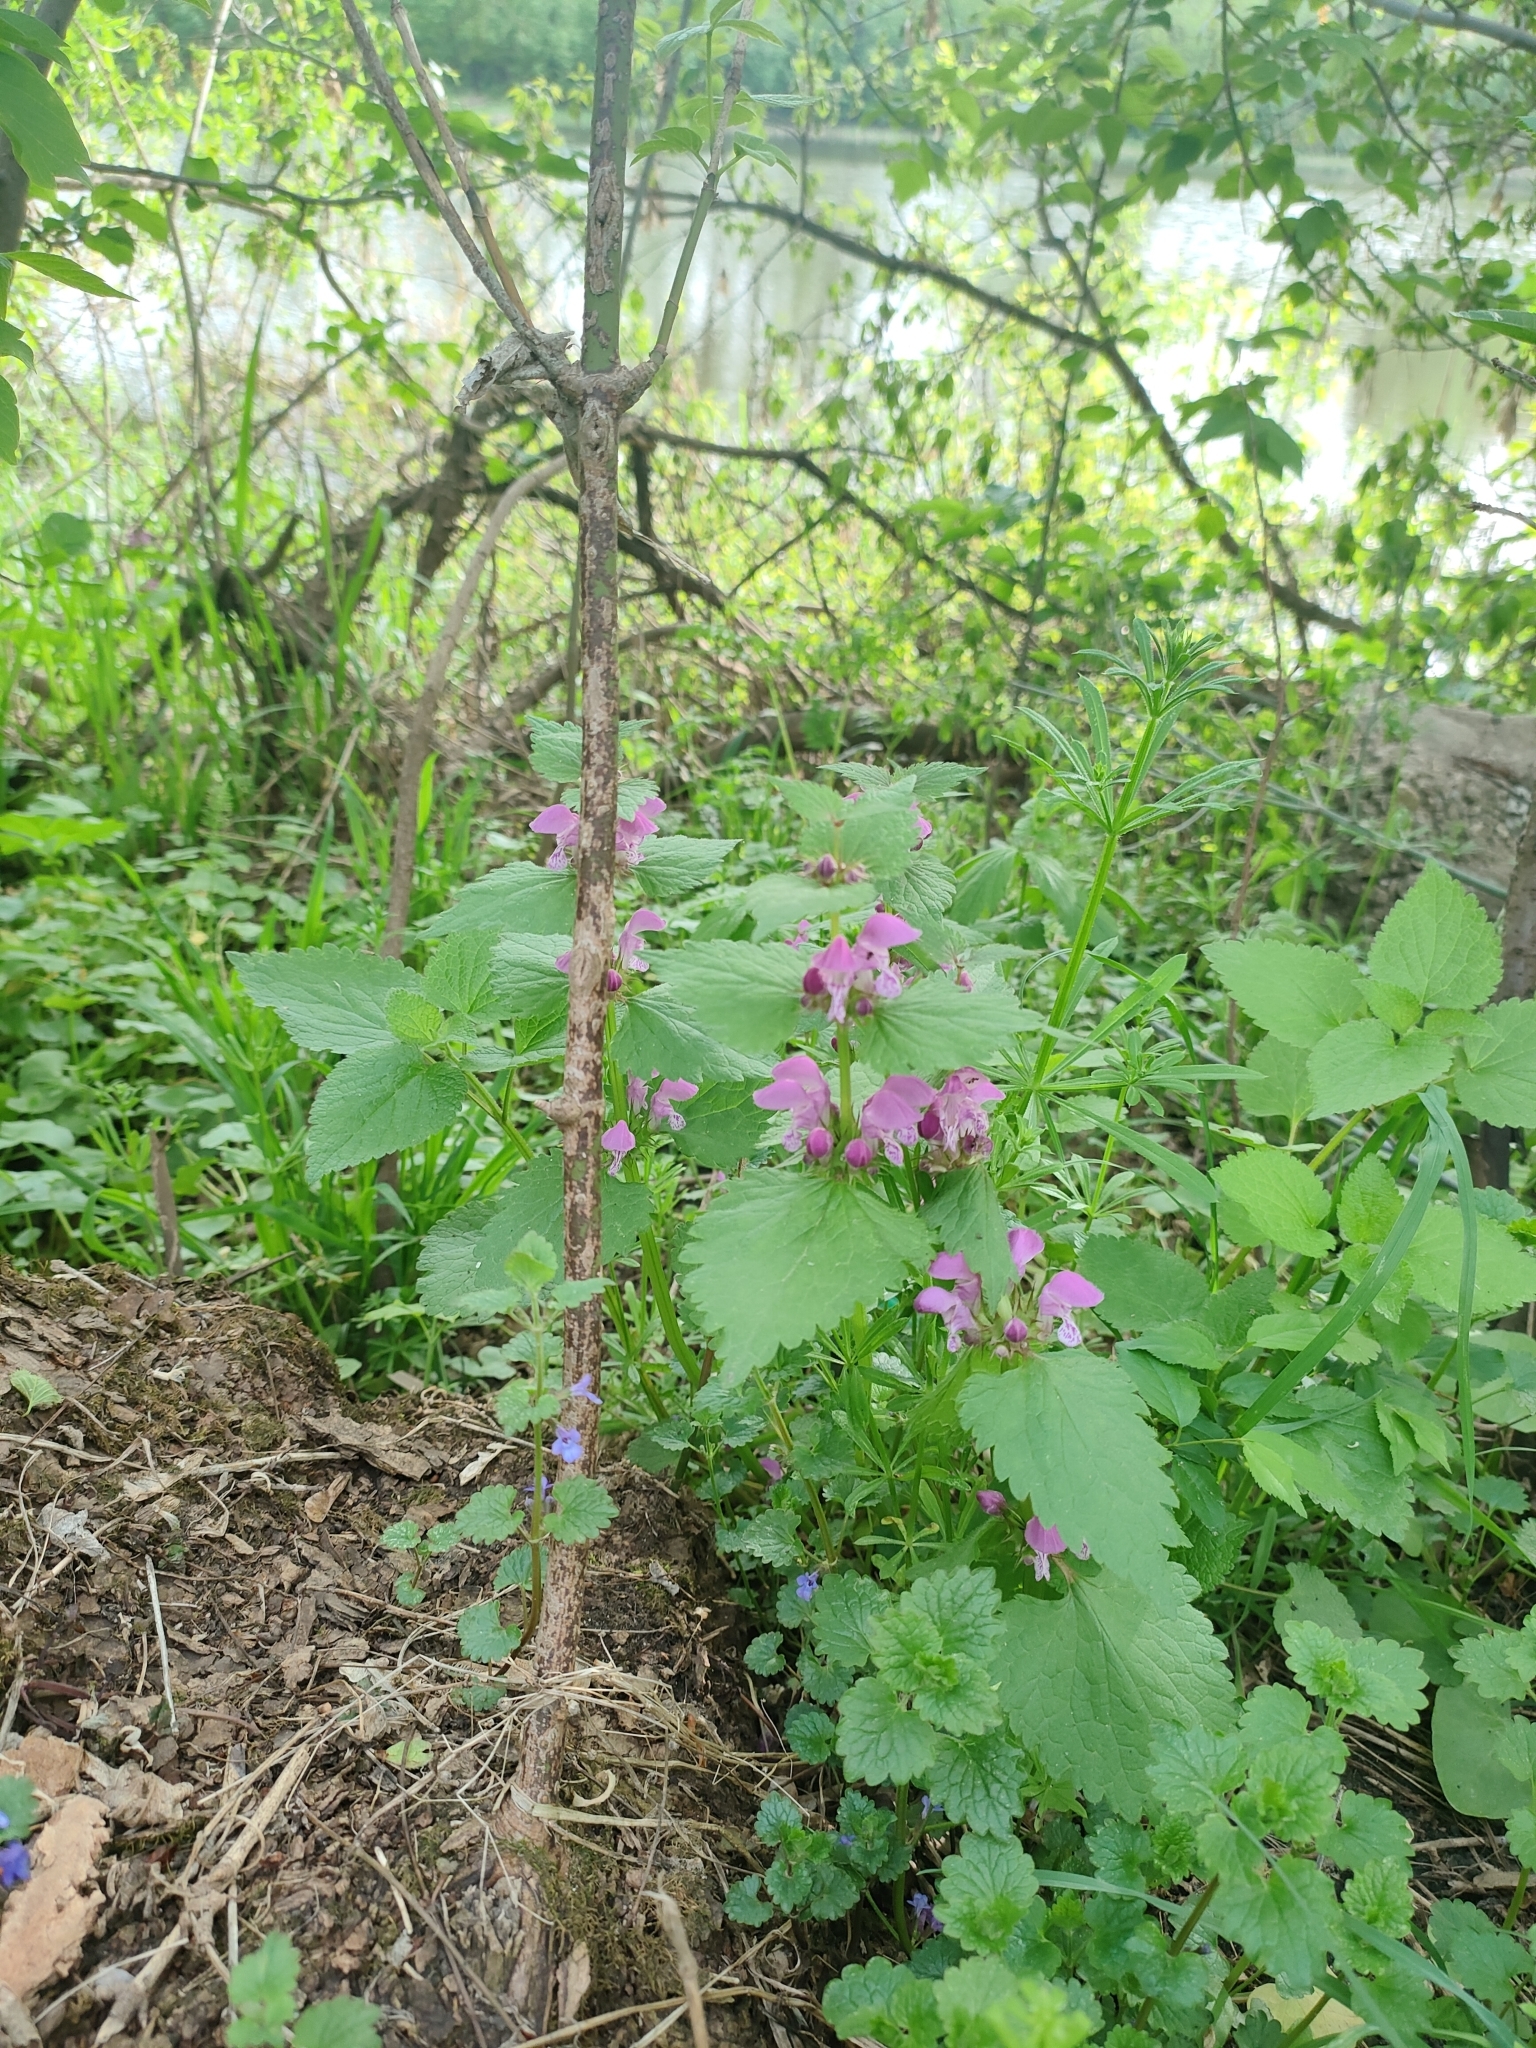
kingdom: Plantae
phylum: Tracheophyta
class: Magnoliopsida
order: Lamiales
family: Lamiaceae
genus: Lamium
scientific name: Lamium maculatum
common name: Spotted dead-nettle
